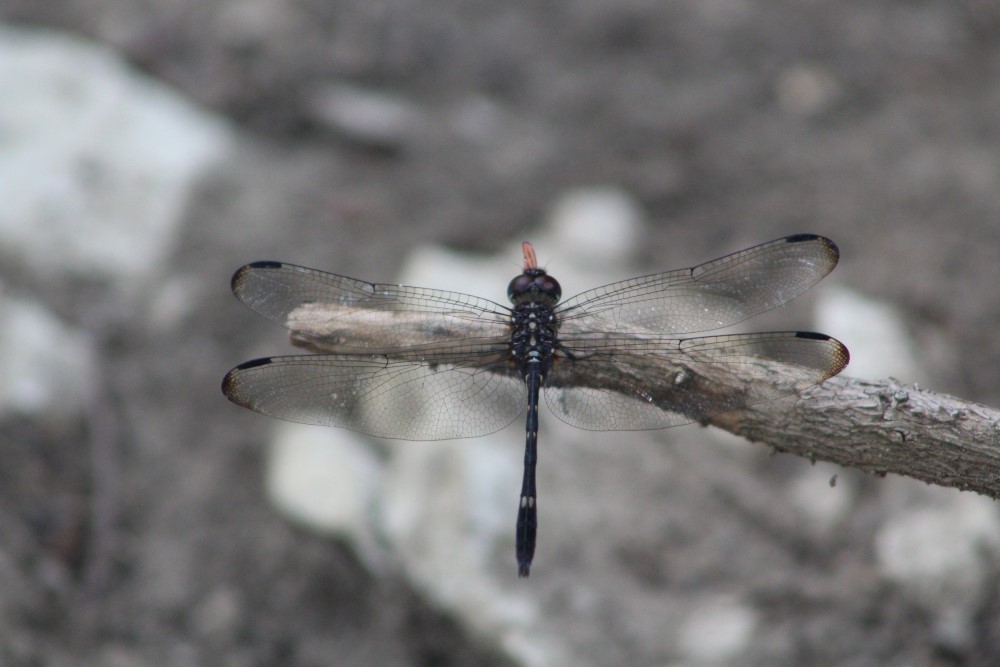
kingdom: Animalia
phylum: Arthropoda
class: Insecta
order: Odonata
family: Libellulidae
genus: Dythemis
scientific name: Dythemis velox
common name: Swift setwing
